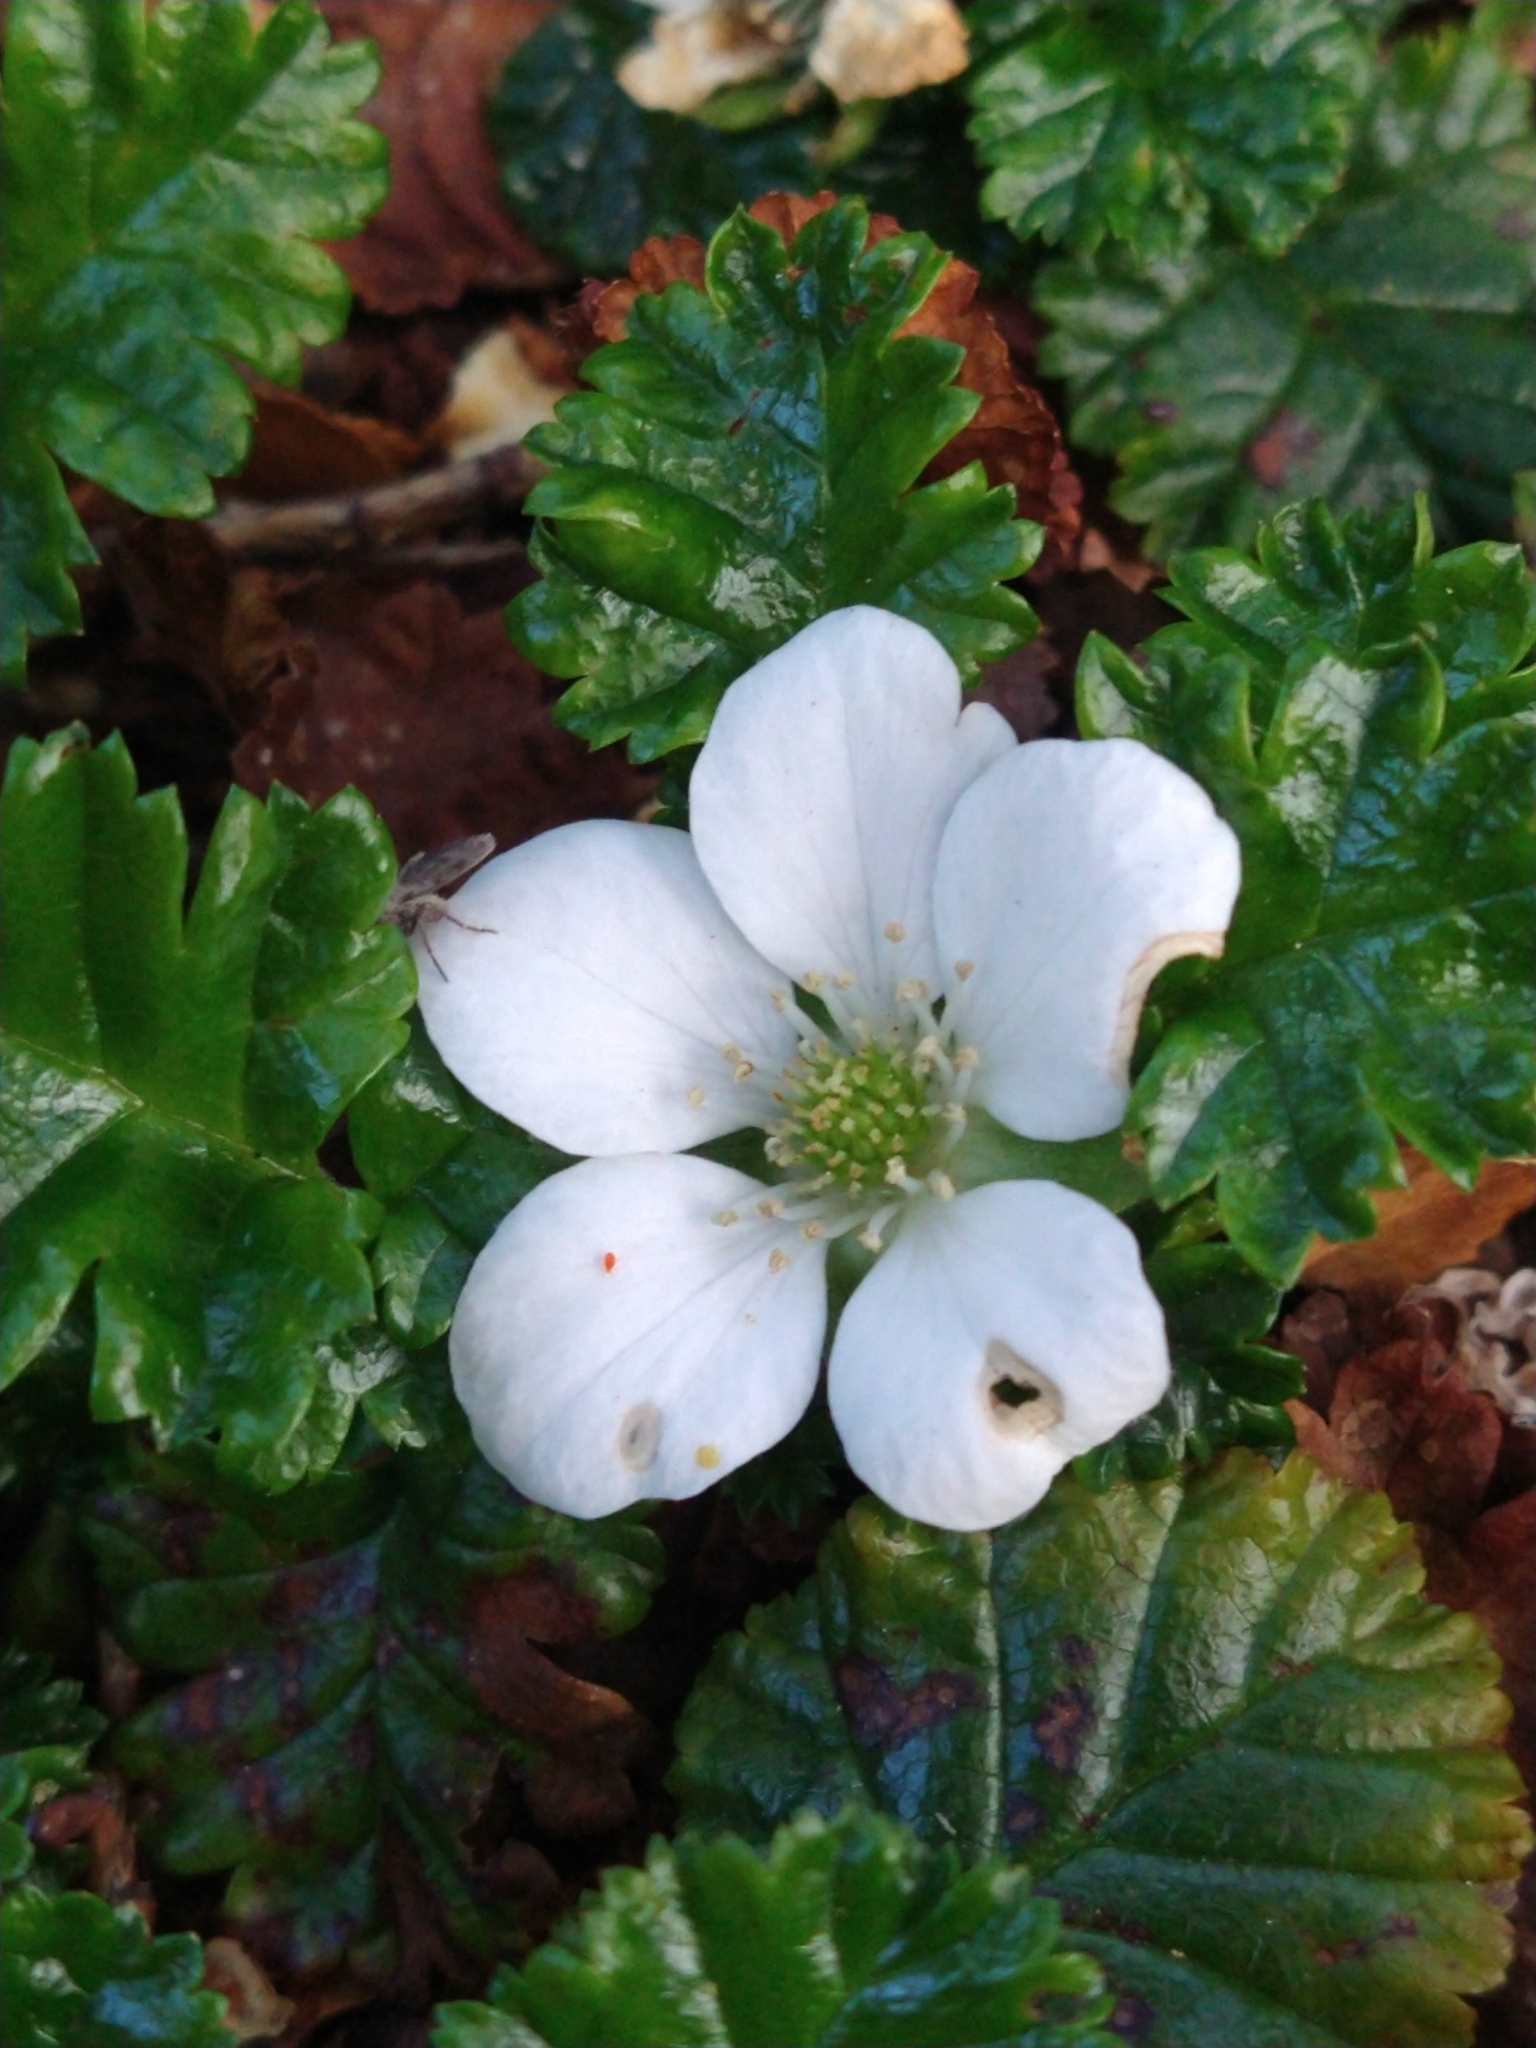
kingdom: Plantae
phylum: Tracheophyta
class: Magnoliopsida
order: Rosales
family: Rosaceae
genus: Rubus
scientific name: Rubus geoides
